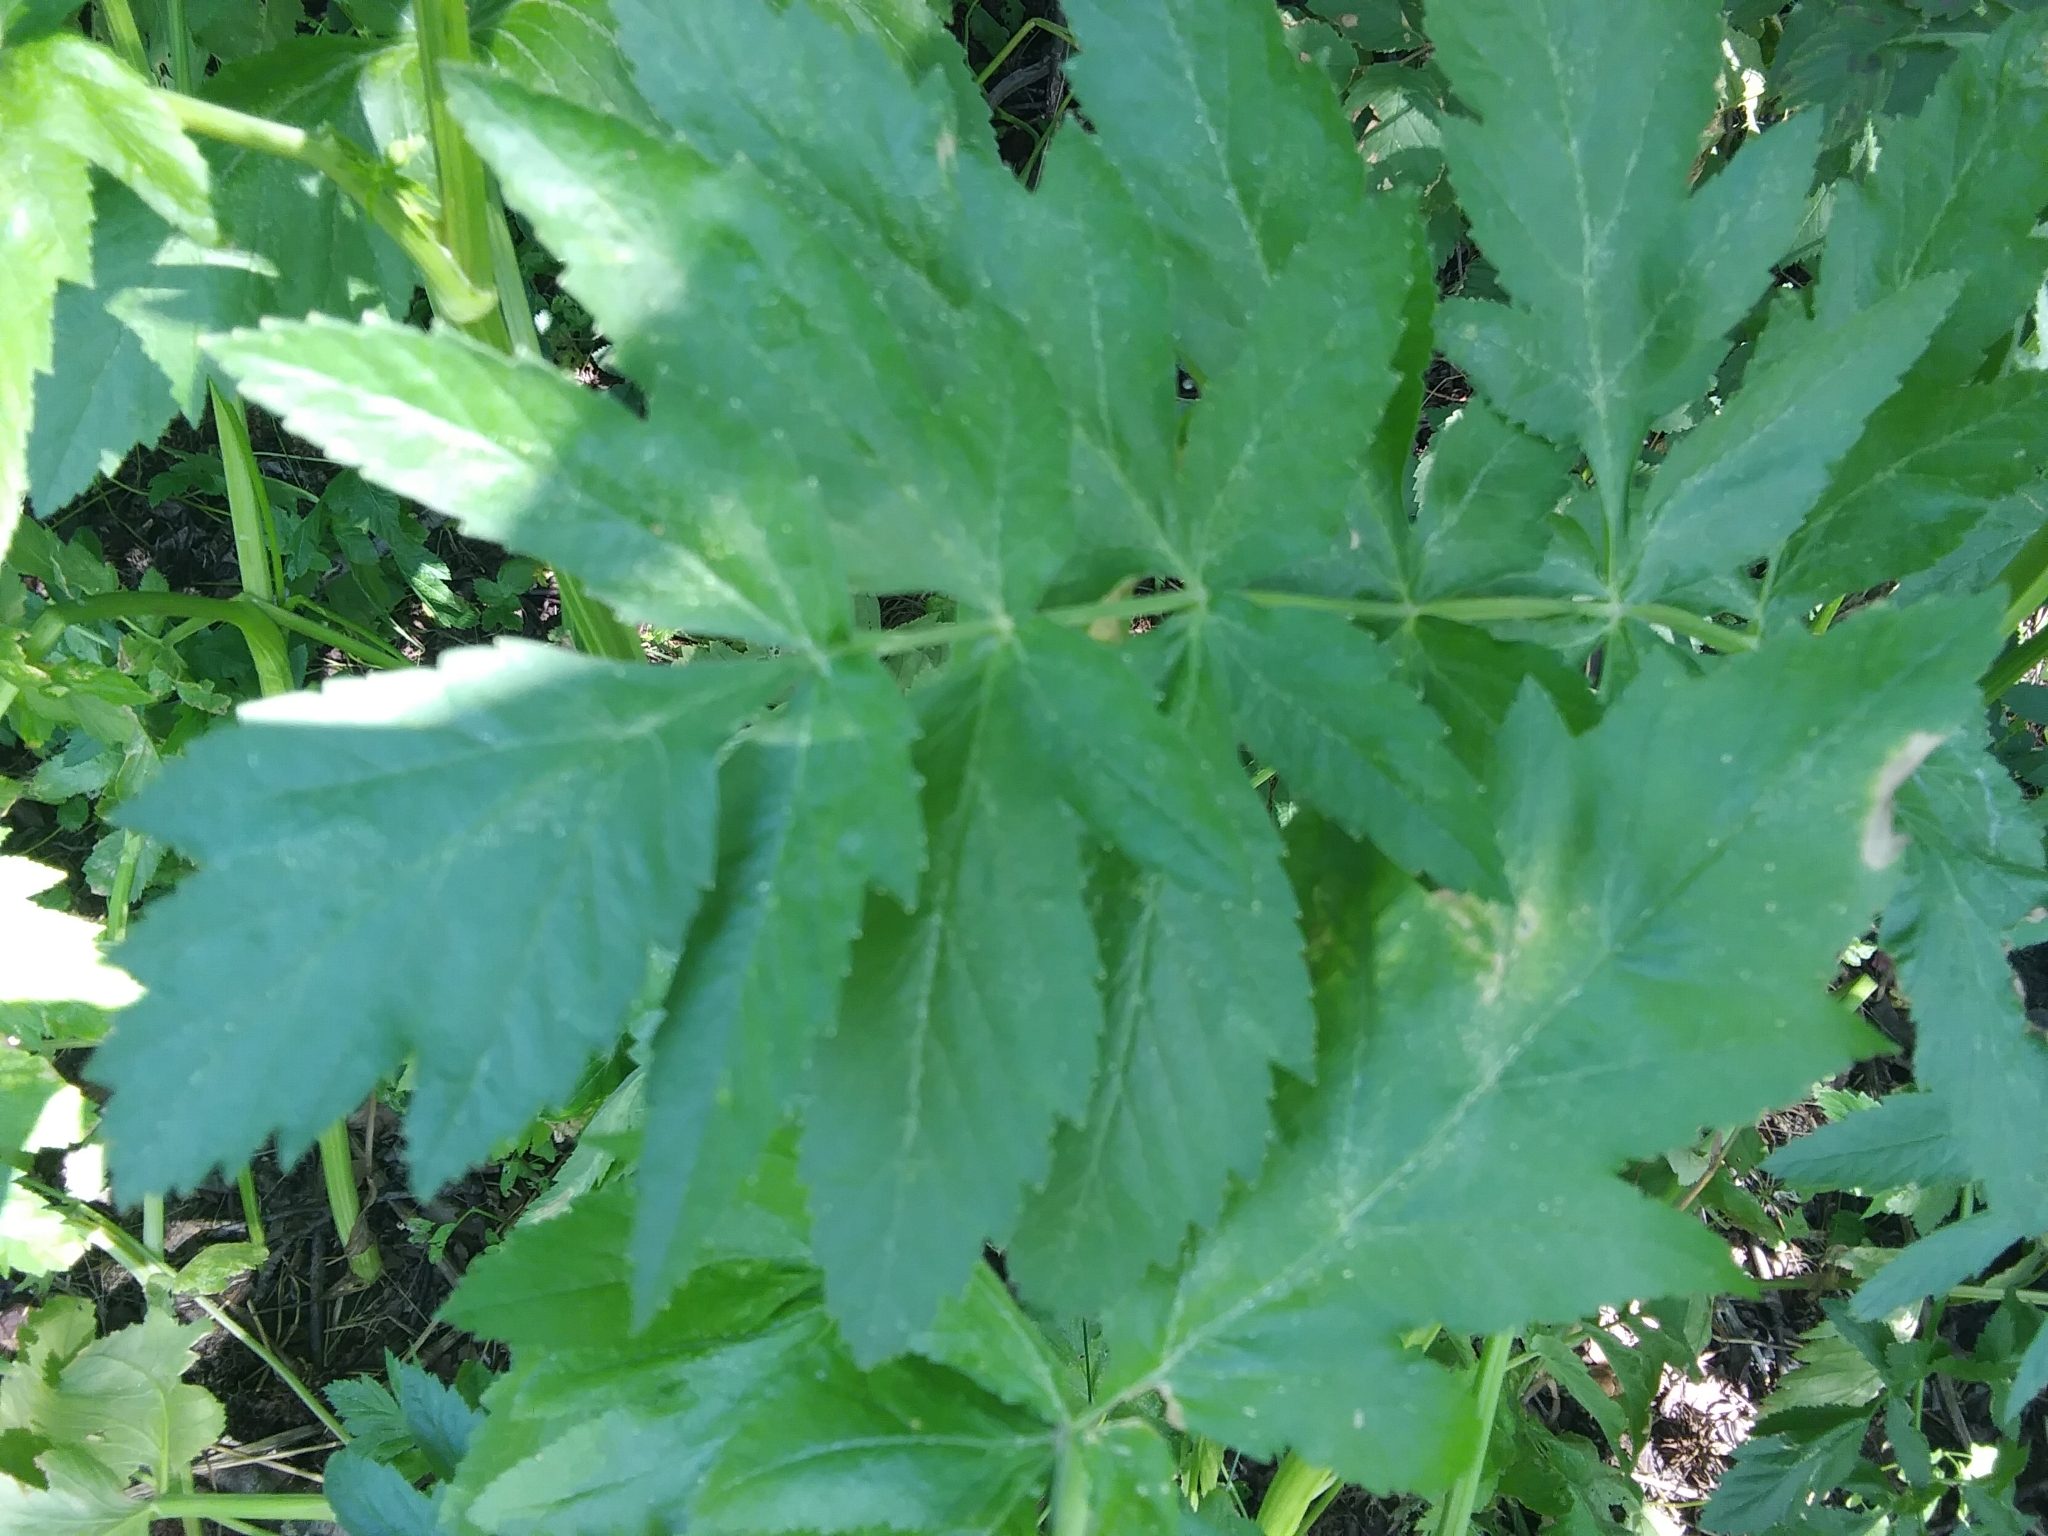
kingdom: Plantae
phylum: Tracheophyta
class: Magnoliopsida
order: Apiales
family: Apiaceae
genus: Pastinaca
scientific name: Pastinaca sativa
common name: Wild parsnip
